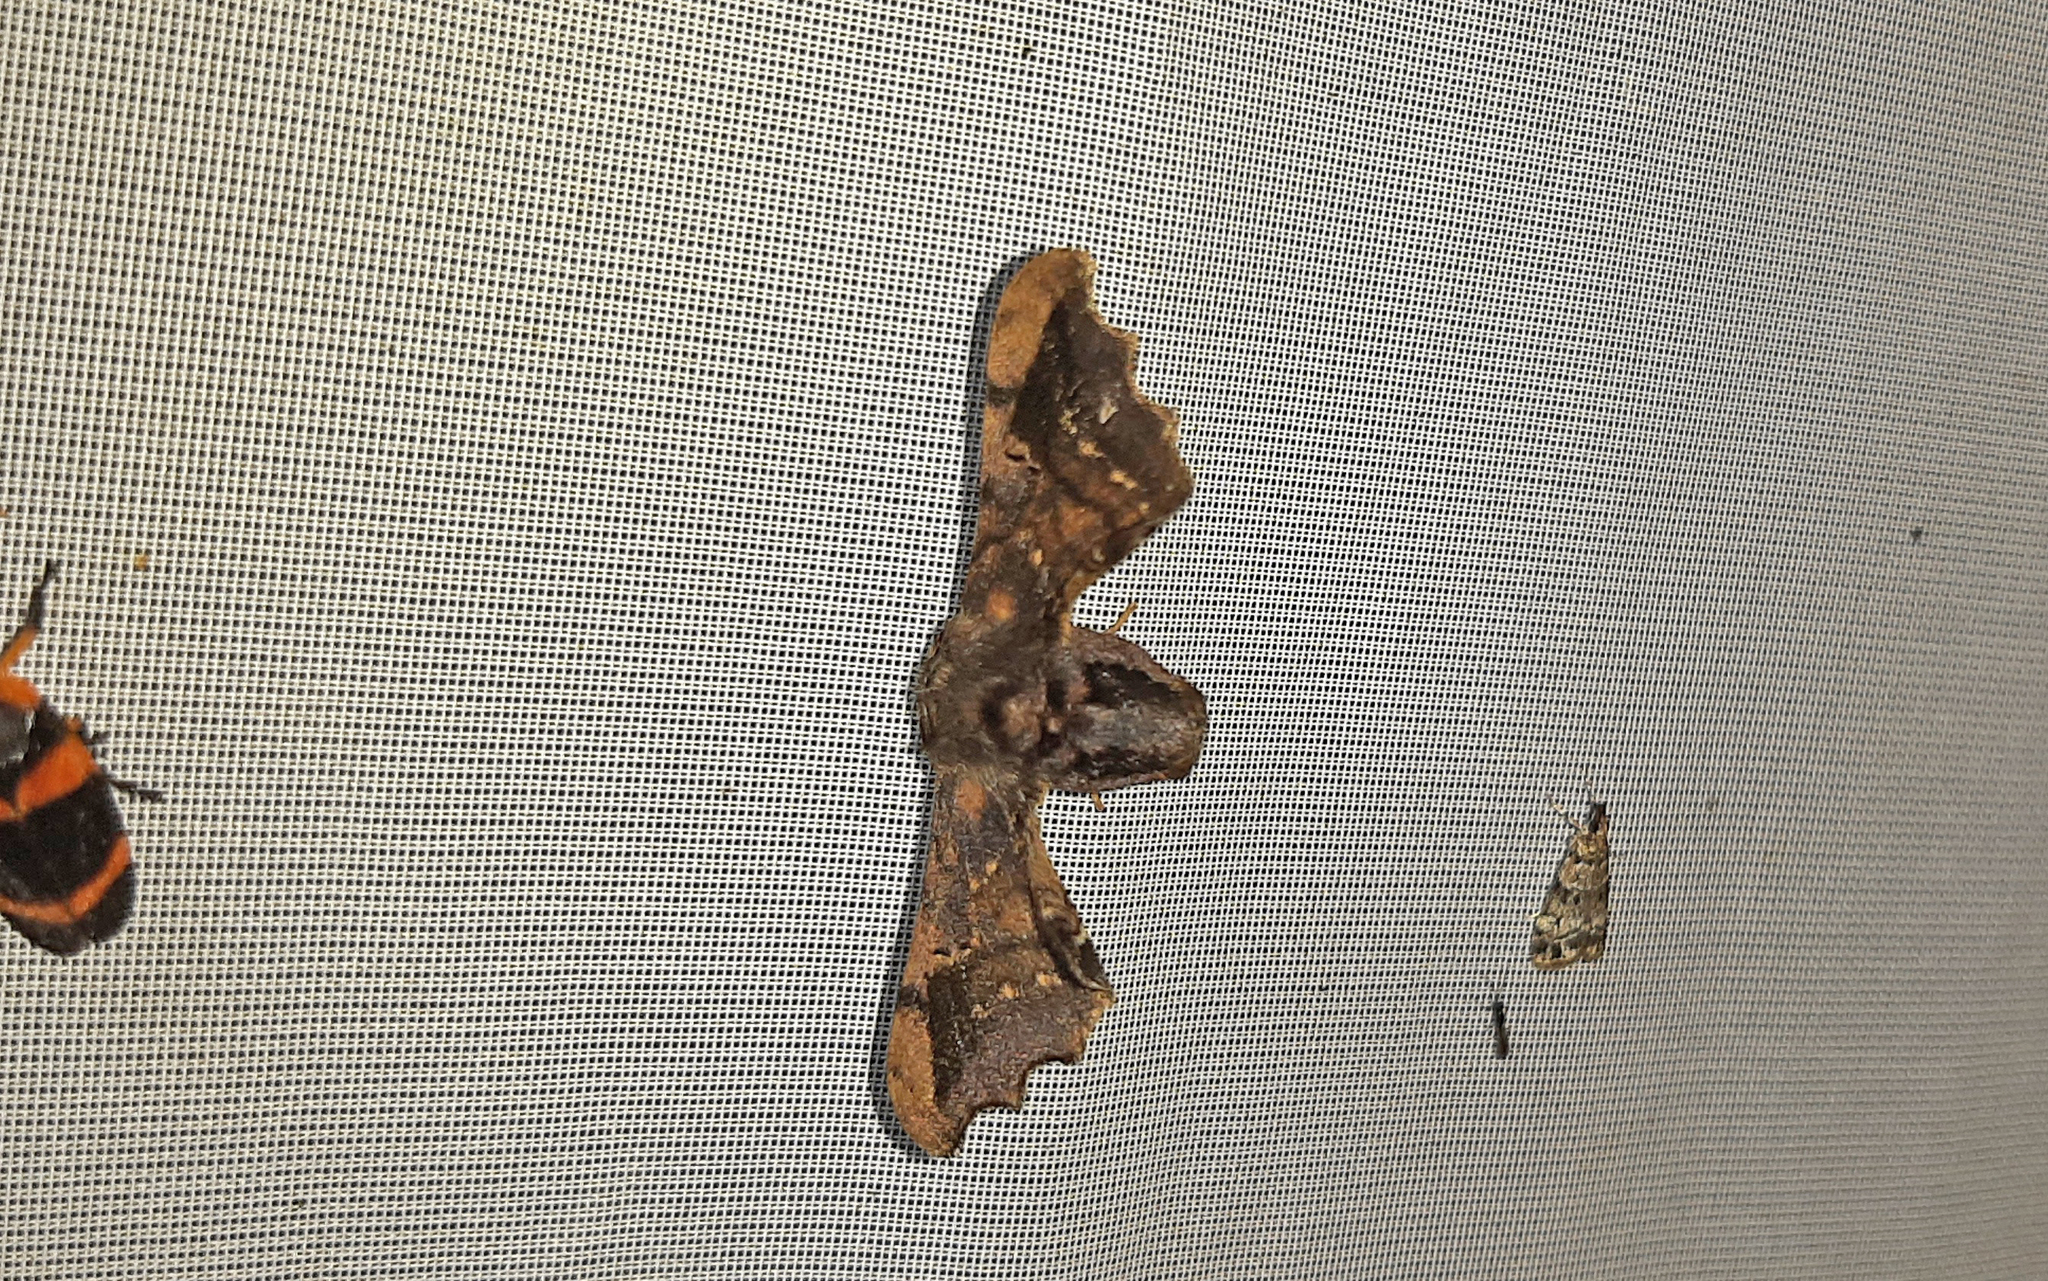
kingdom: Animalia
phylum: Arthropoda
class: Insecta
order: Lepidoptera
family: Bombycidae
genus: Quentalia
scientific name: Quentalia excisa
